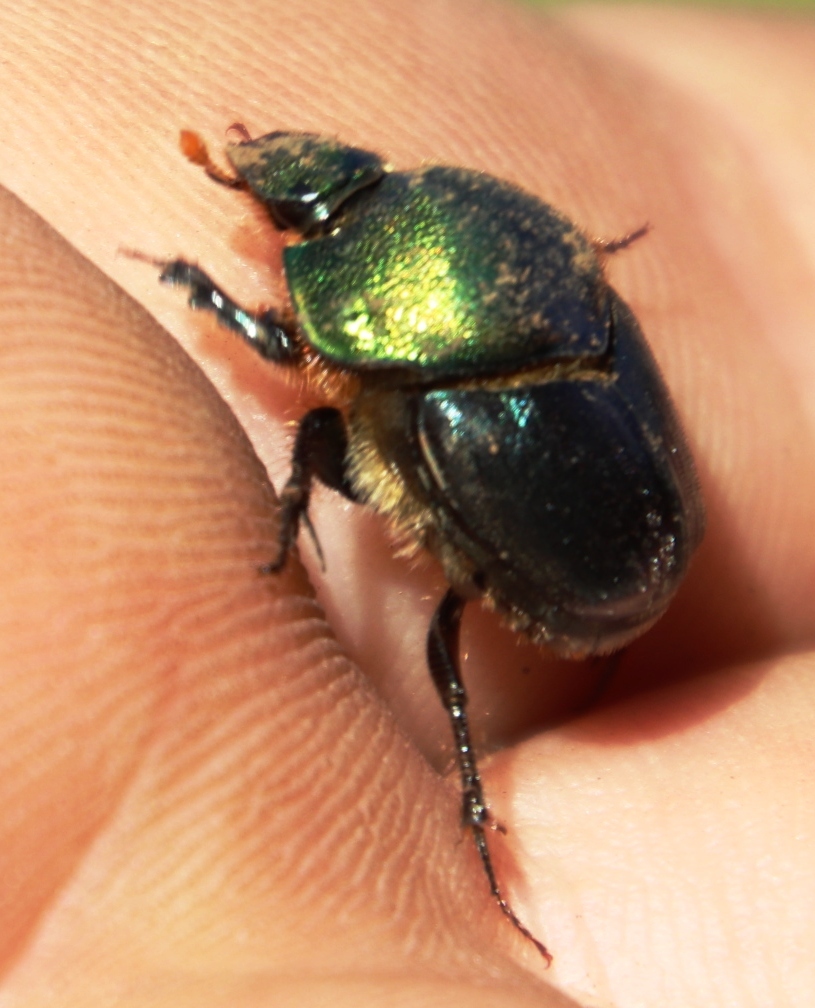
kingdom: Animalia
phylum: Arthropoda
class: Insecta
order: Coleoptera
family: Scarabaeidae
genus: Proagoderus
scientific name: Proagoderus chalcostolus
